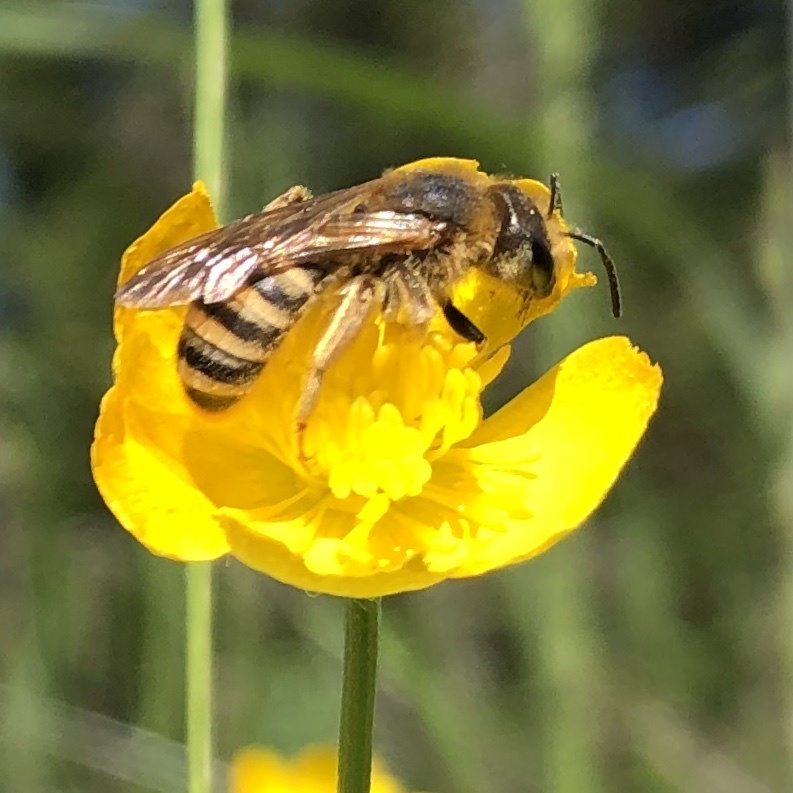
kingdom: Animalia
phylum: Arthropoda
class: Insecta
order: Hymenoptera
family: Halictidae
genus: Halictus
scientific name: Halictus scabiosae
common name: Great banded furrow bee
